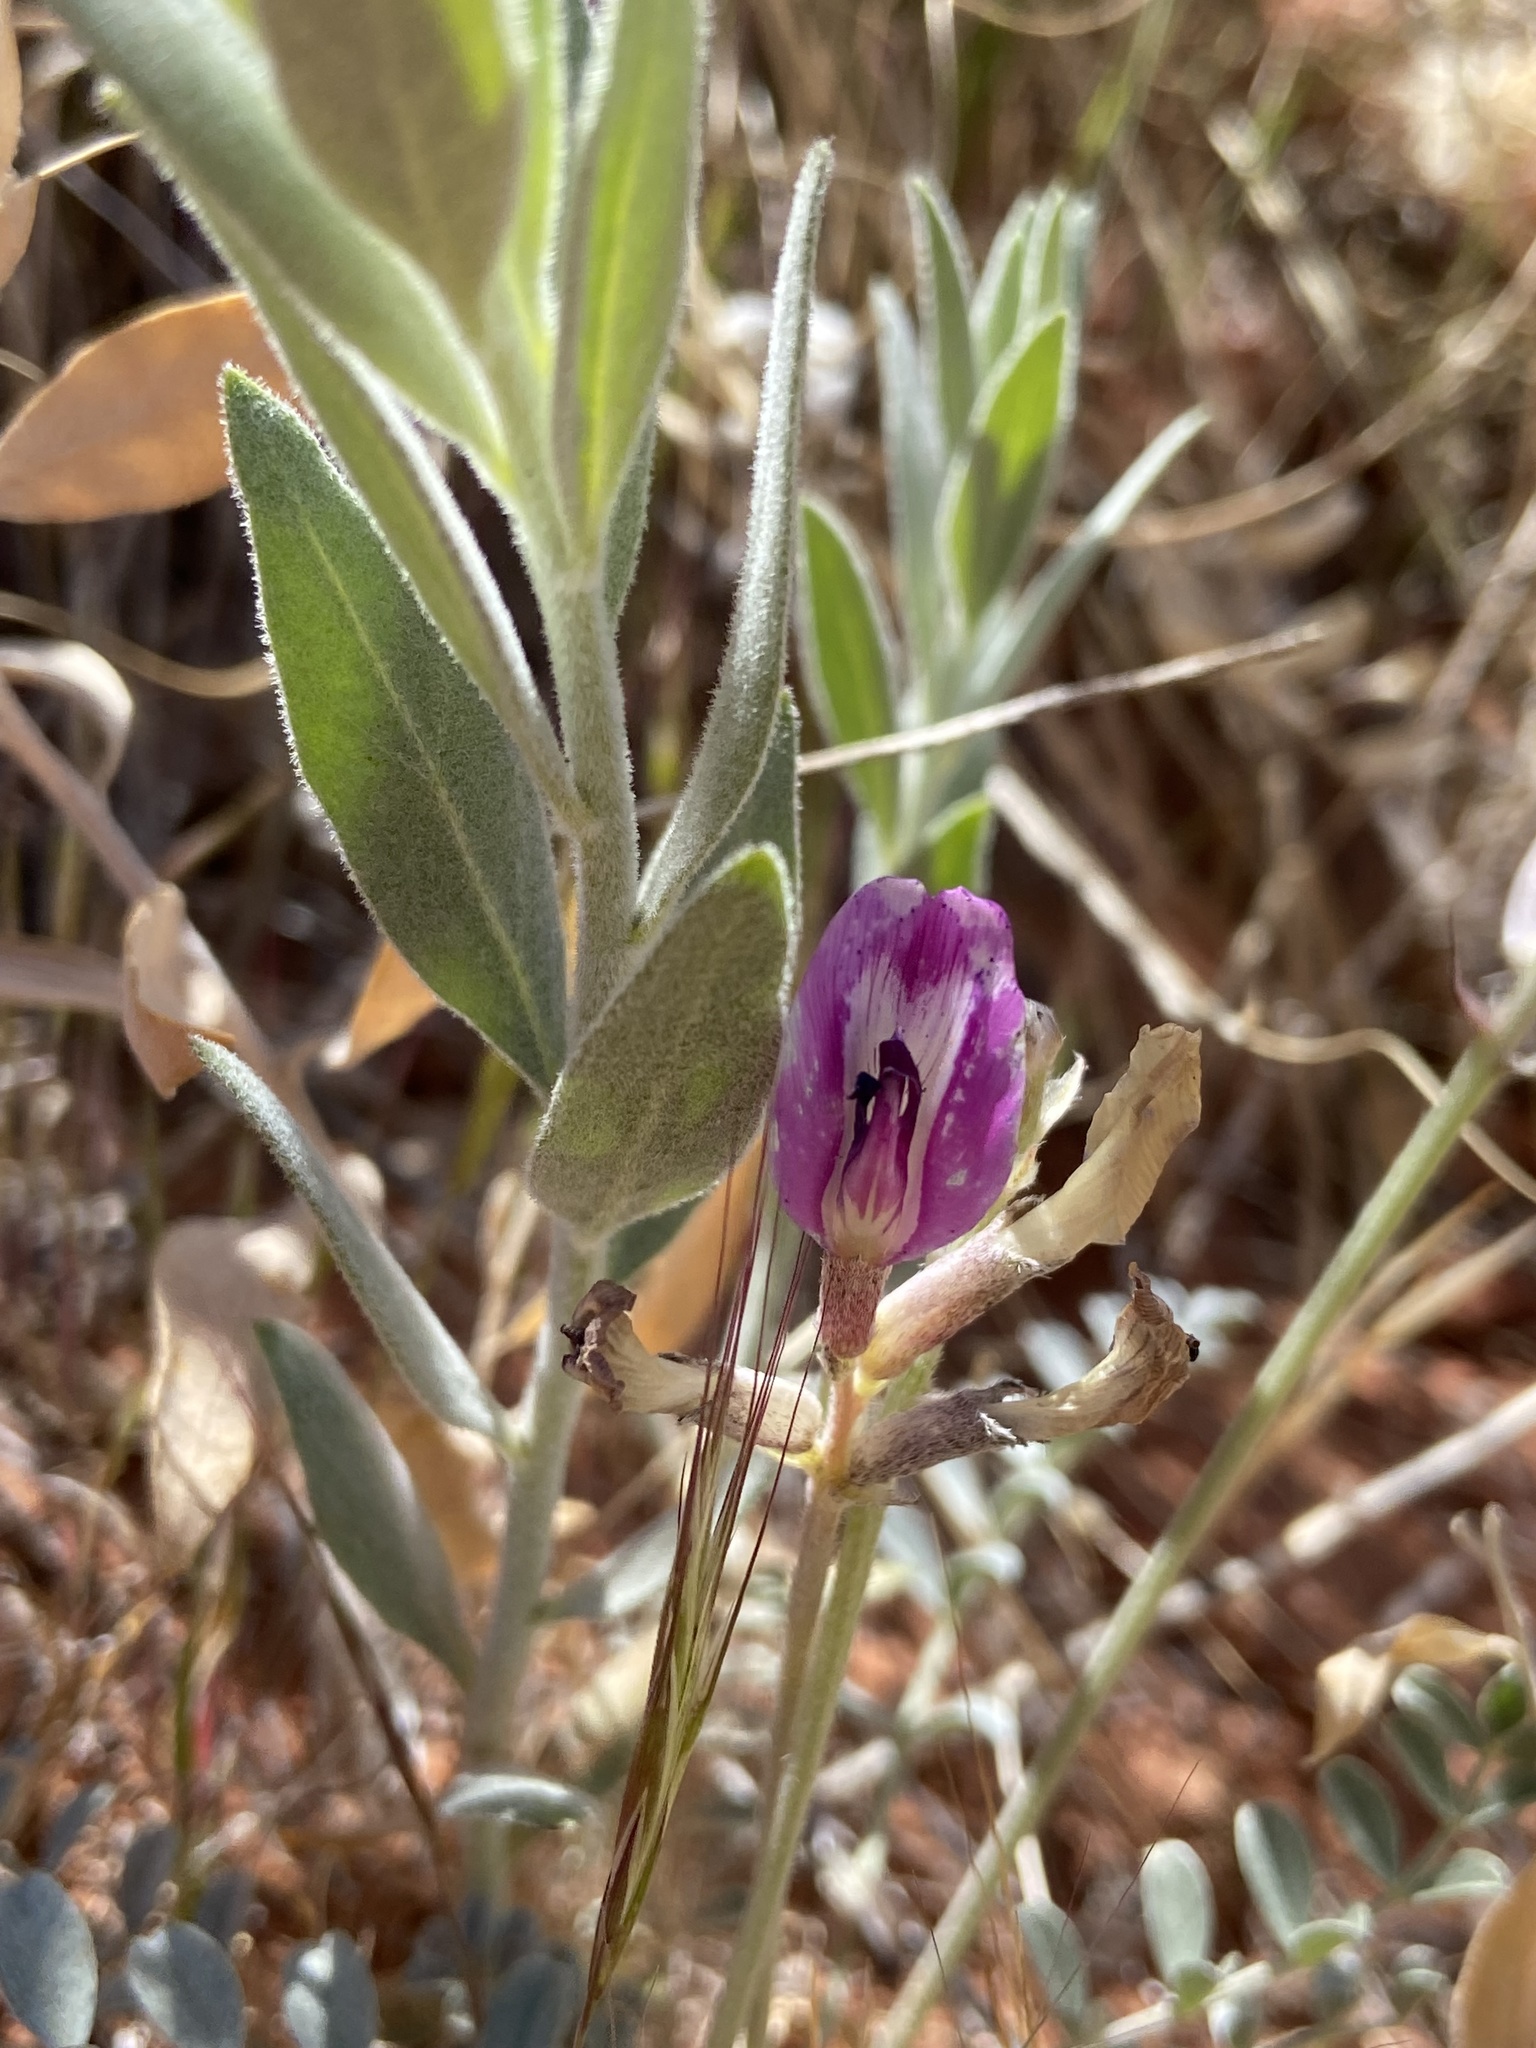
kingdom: Plantae
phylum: Tracheophyta
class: Magnoliopsida
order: Fabales
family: Fabaceae
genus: Astragalus
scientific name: Astragalus amphioxys
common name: Crescent milk-vetch
